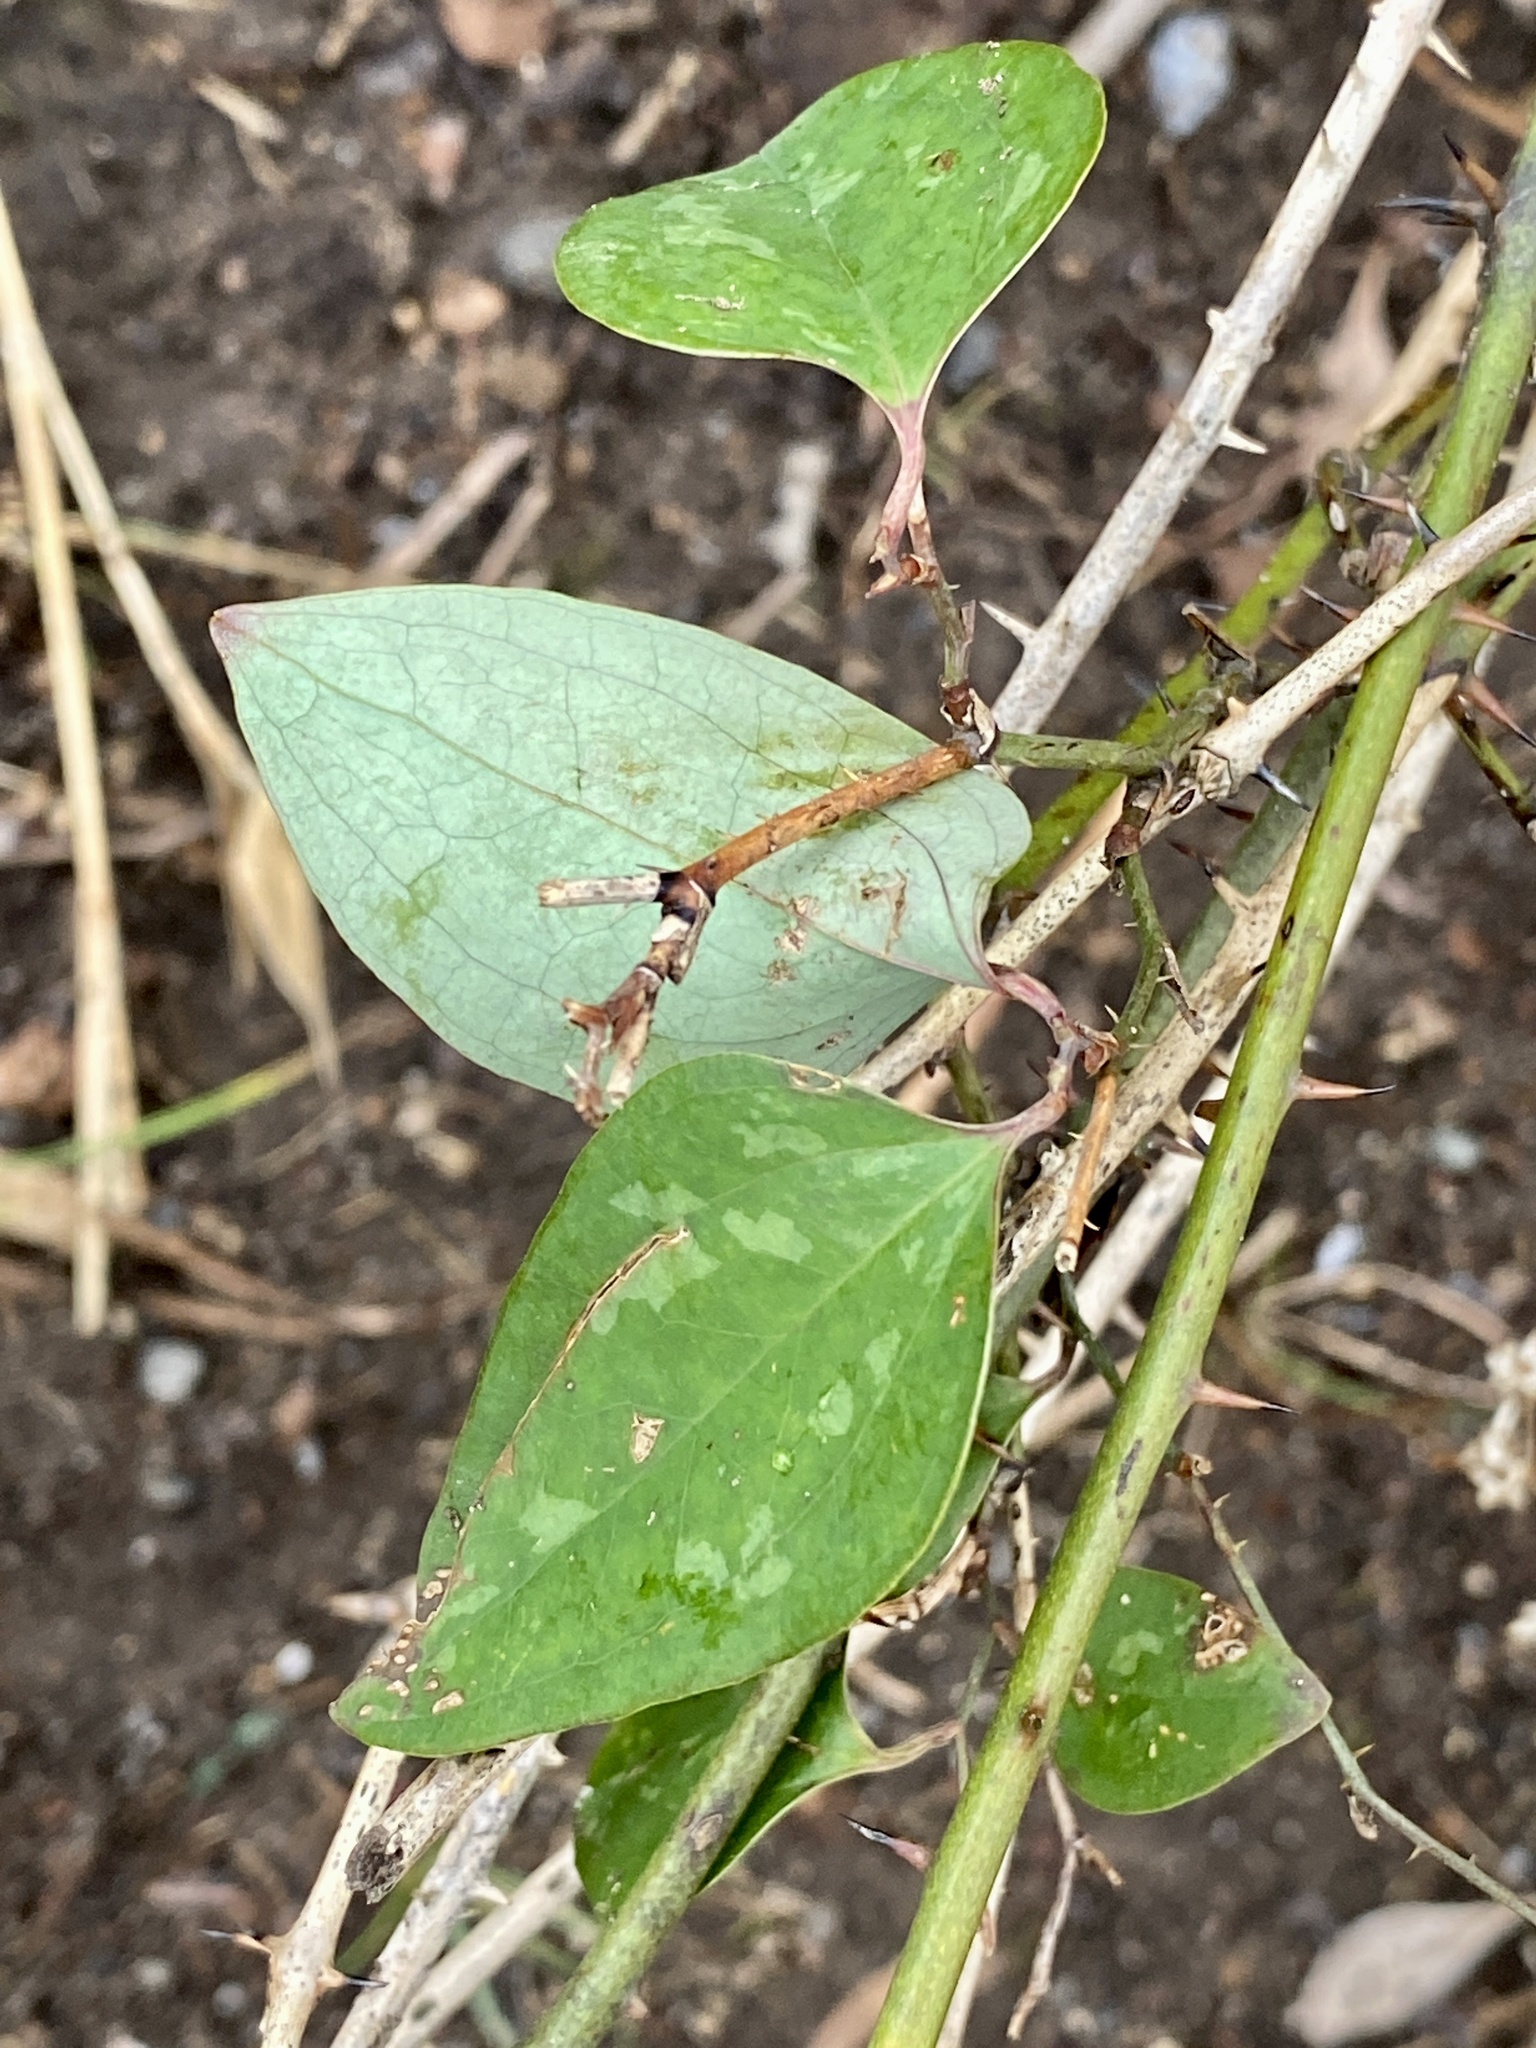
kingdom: Plantae
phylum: Tracheophyta
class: Liliopsida
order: Liliales
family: Smilacaceae
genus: Smilax
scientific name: Smilax glauca
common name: Cat greenbrier
